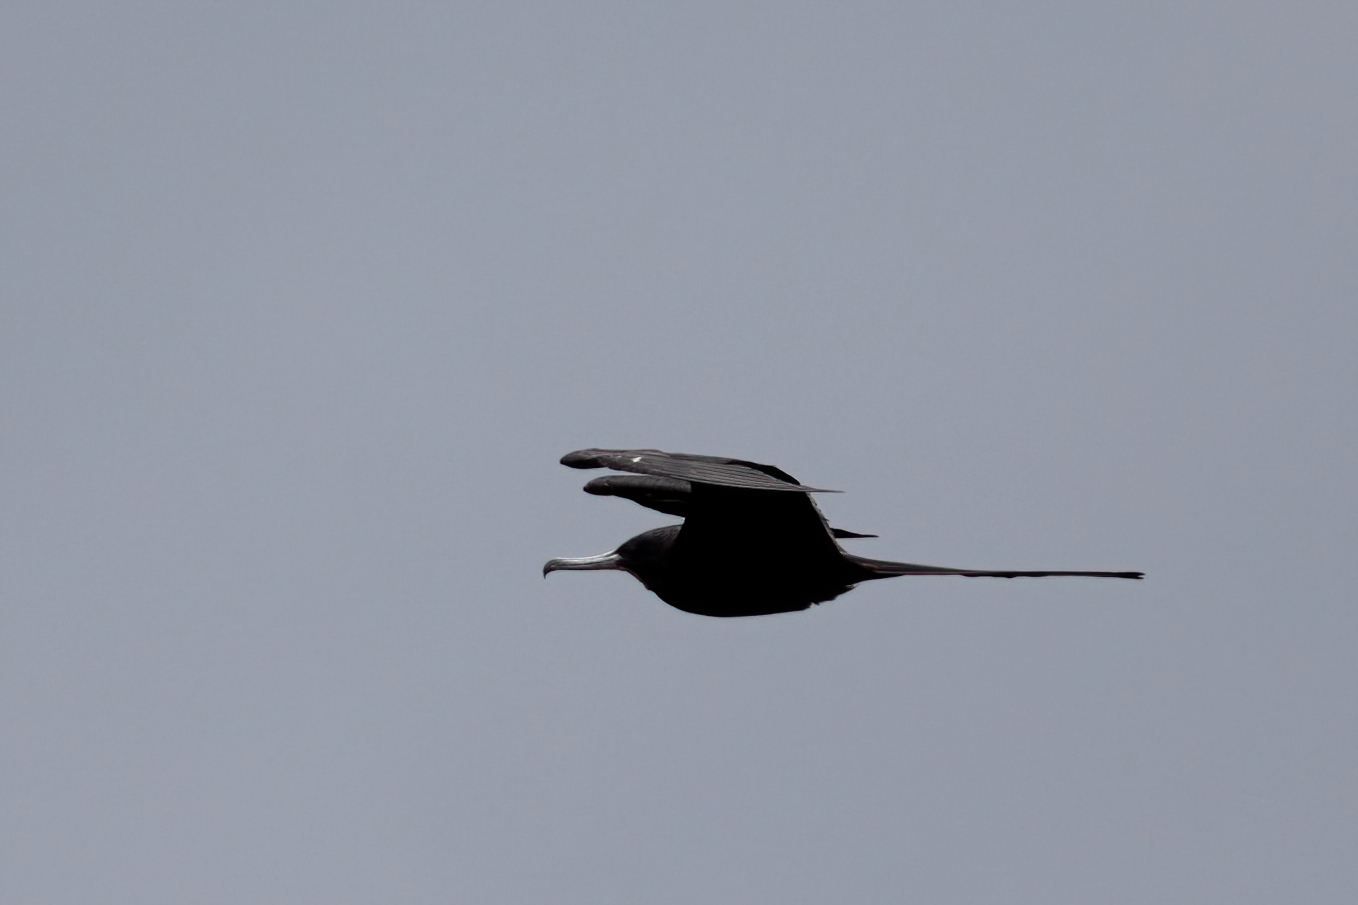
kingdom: Animalia
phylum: Chordata
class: Aves
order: Suliformes
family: Fregatidae
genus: Fregata
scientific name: Fregata magnificens
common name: Magnificent frigatebird
